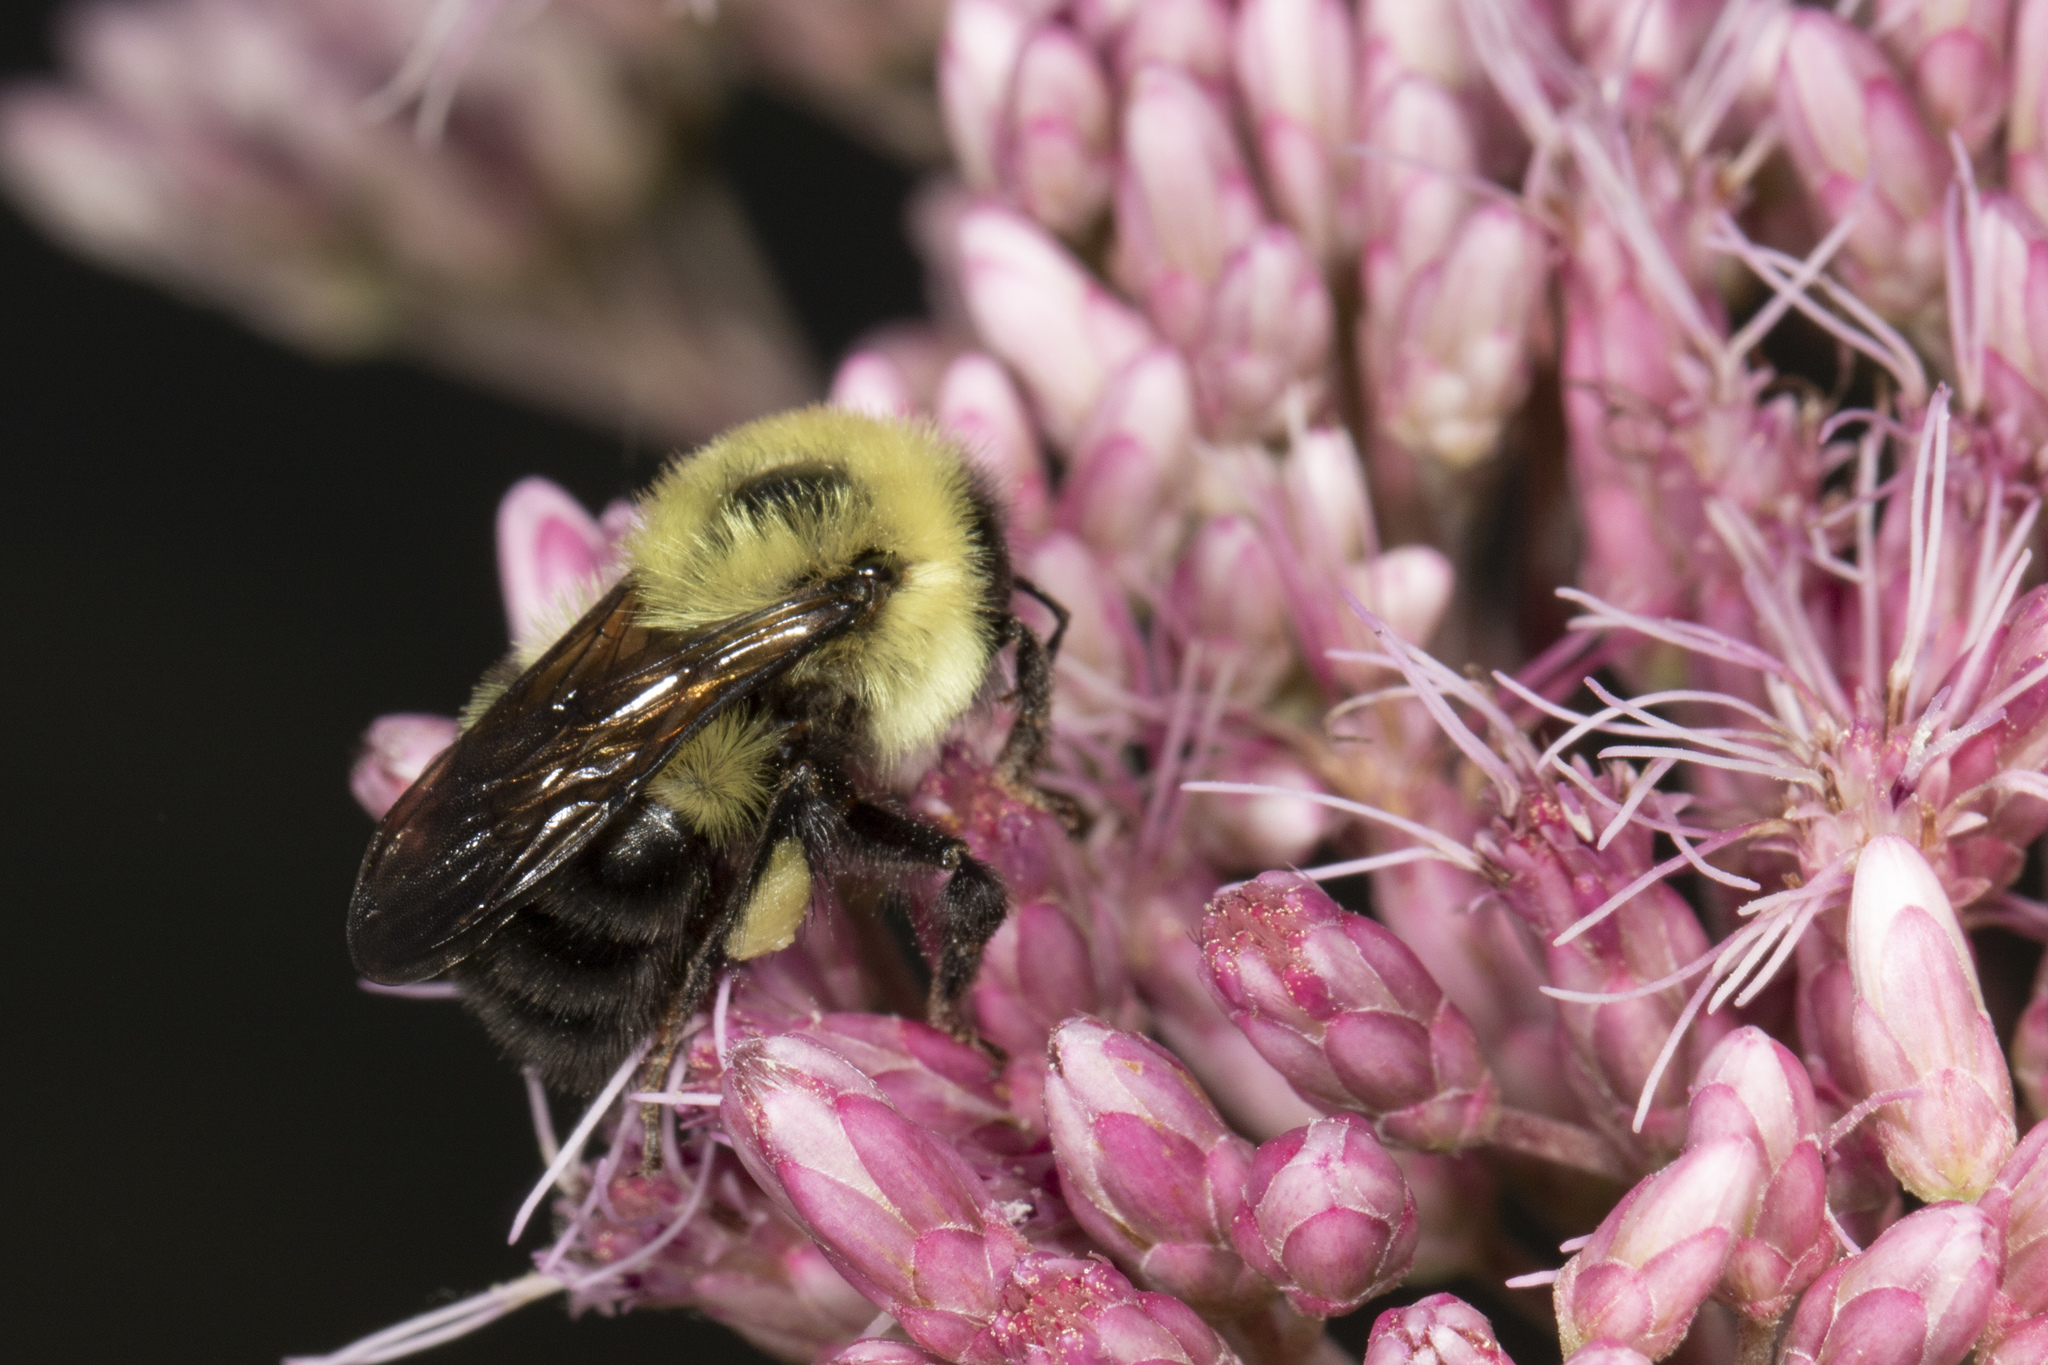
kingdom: Animalia
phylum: Arthropoda
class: Insecta
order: Hymenoptera
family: Apidae
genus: Bombus
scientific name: Bombus bimaculatus
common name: Two-spotted bumble bee
